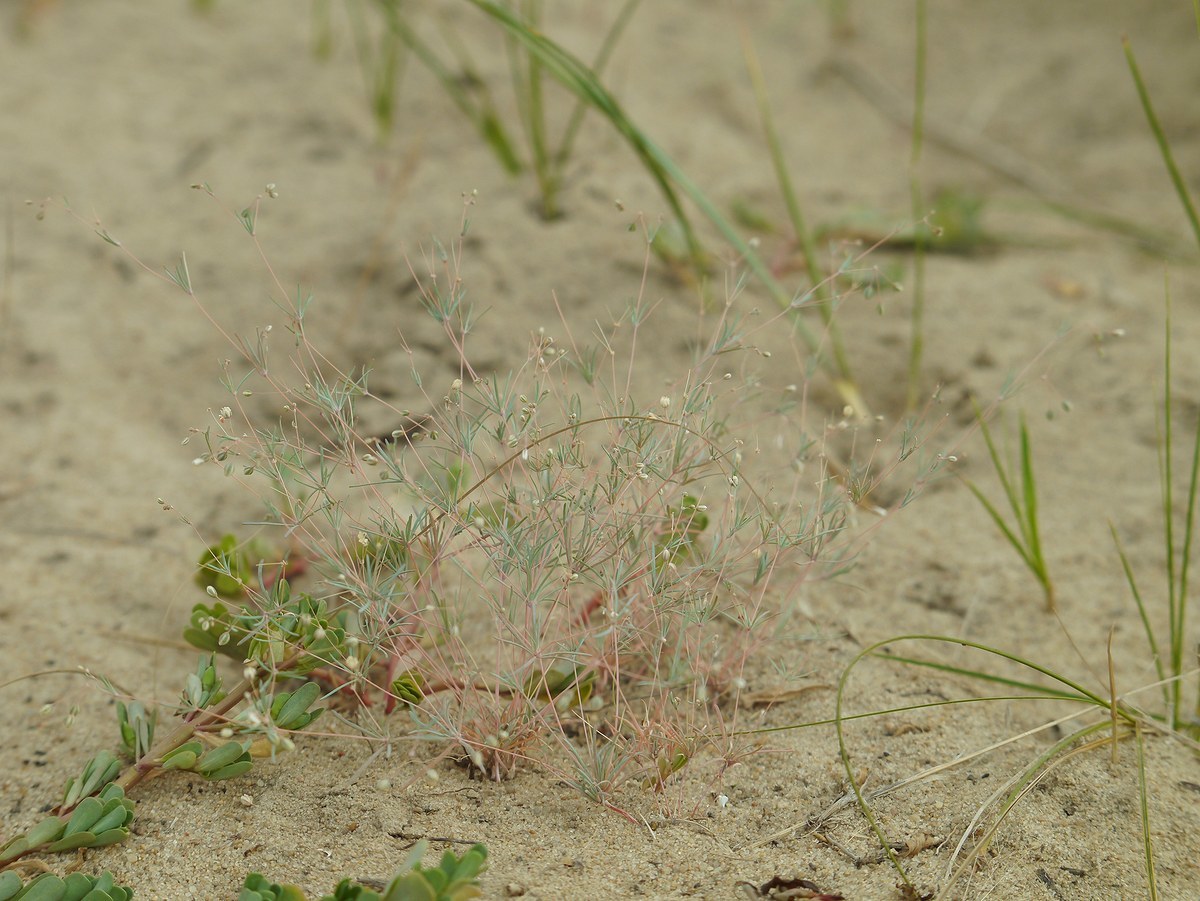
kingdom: Plantae
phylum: Tracheophyta
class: Magnoliopsida
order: Caryophyllales
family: Molluginaceae
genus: Hypertelis
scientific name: Hypertelis cerviana
